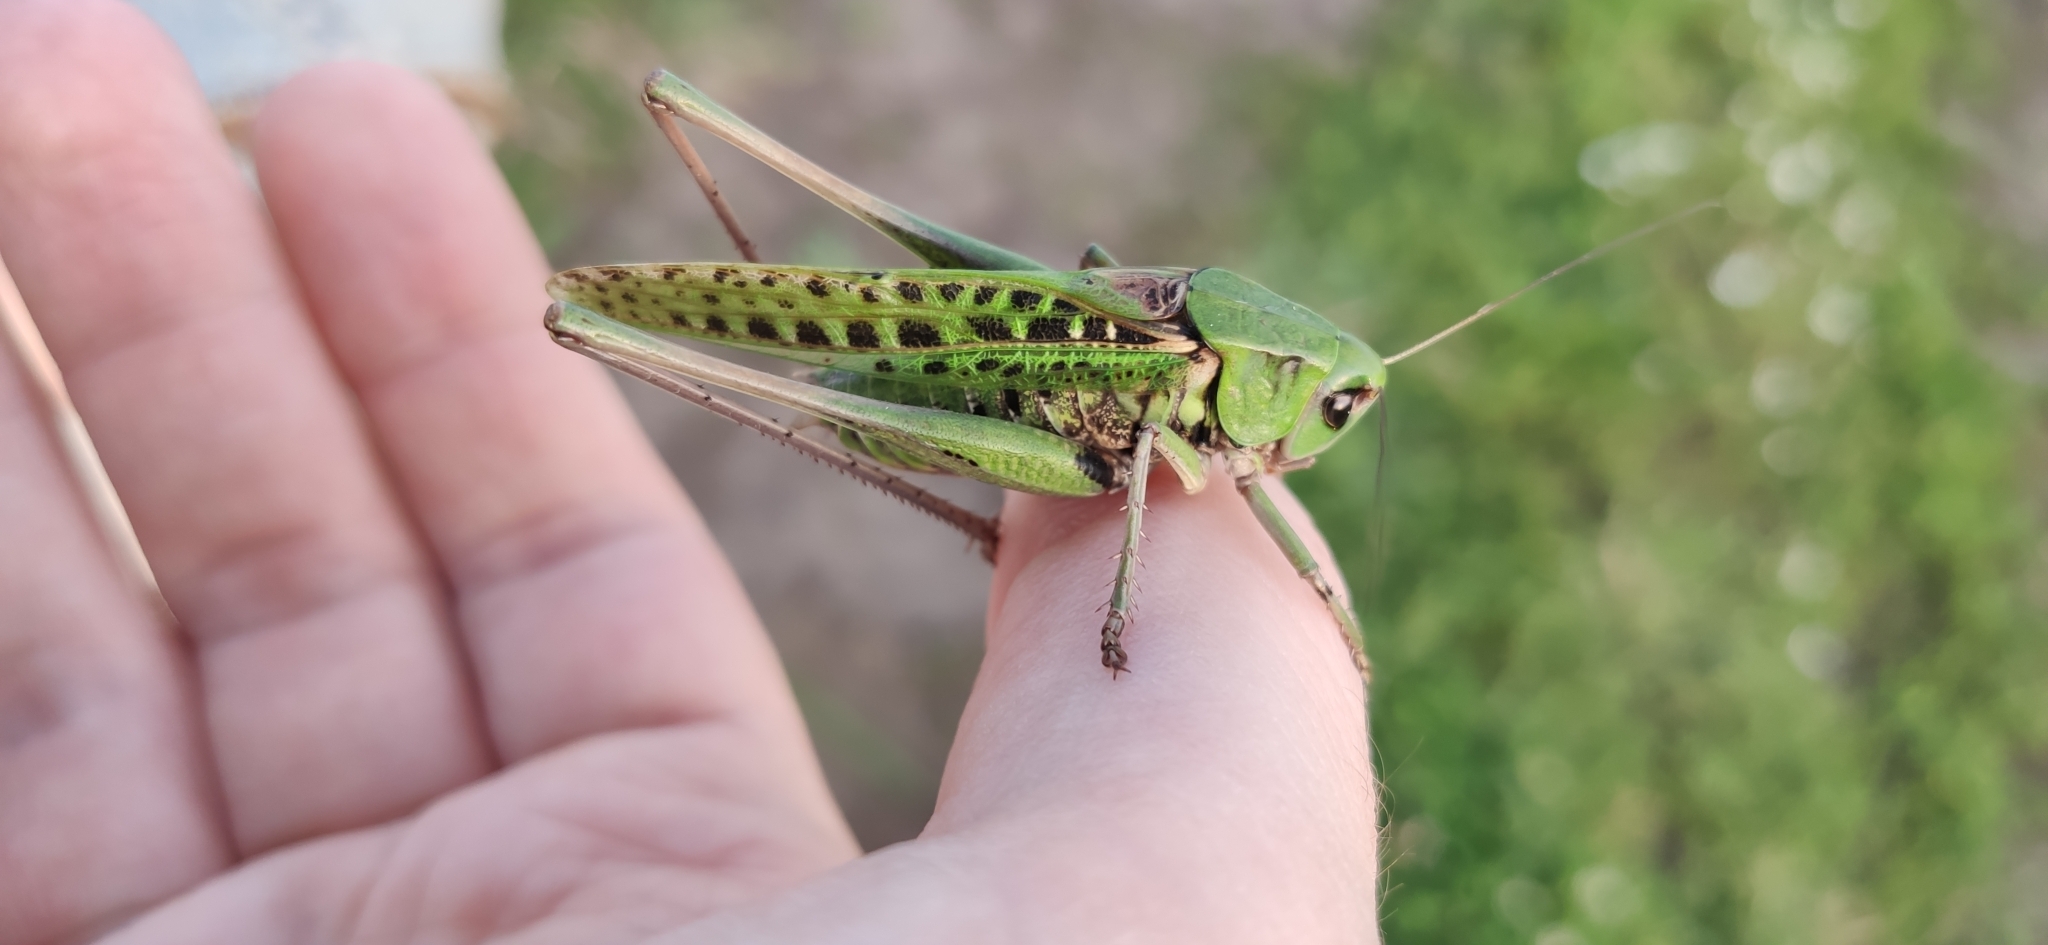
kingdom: Animalia
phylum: Arthropoda
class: Insecta
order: Orthoptera
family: Tettigoniidae
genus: Decticus
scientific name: Decticus verrucivorus
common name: Wart-biter
